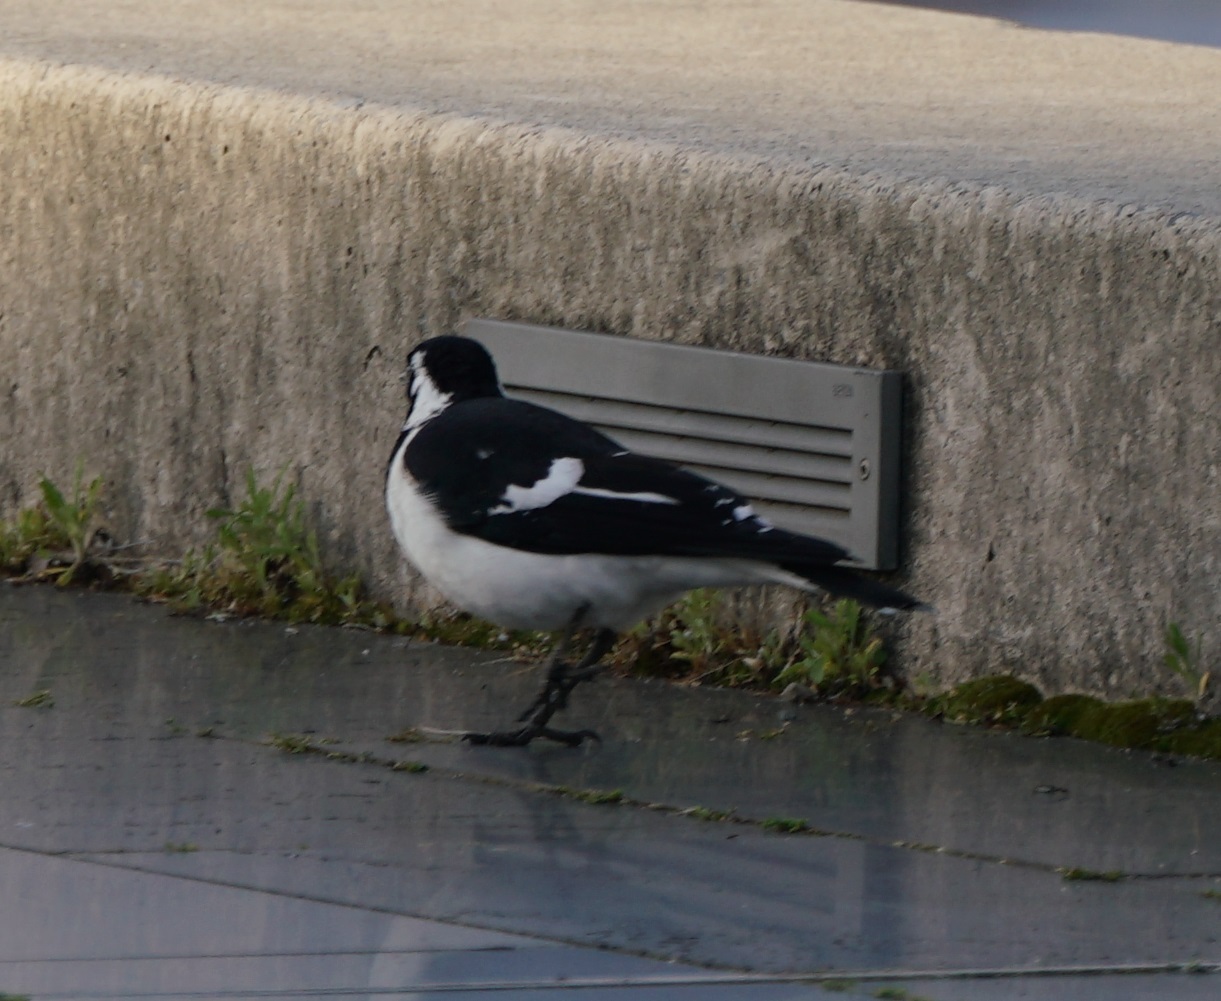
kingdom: Animalia
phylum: Chordata
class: Aves
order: Passeriformes
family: Monarchidae
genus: Grallina
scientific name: Grallina cyanoleuca
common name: Magpie-lark
